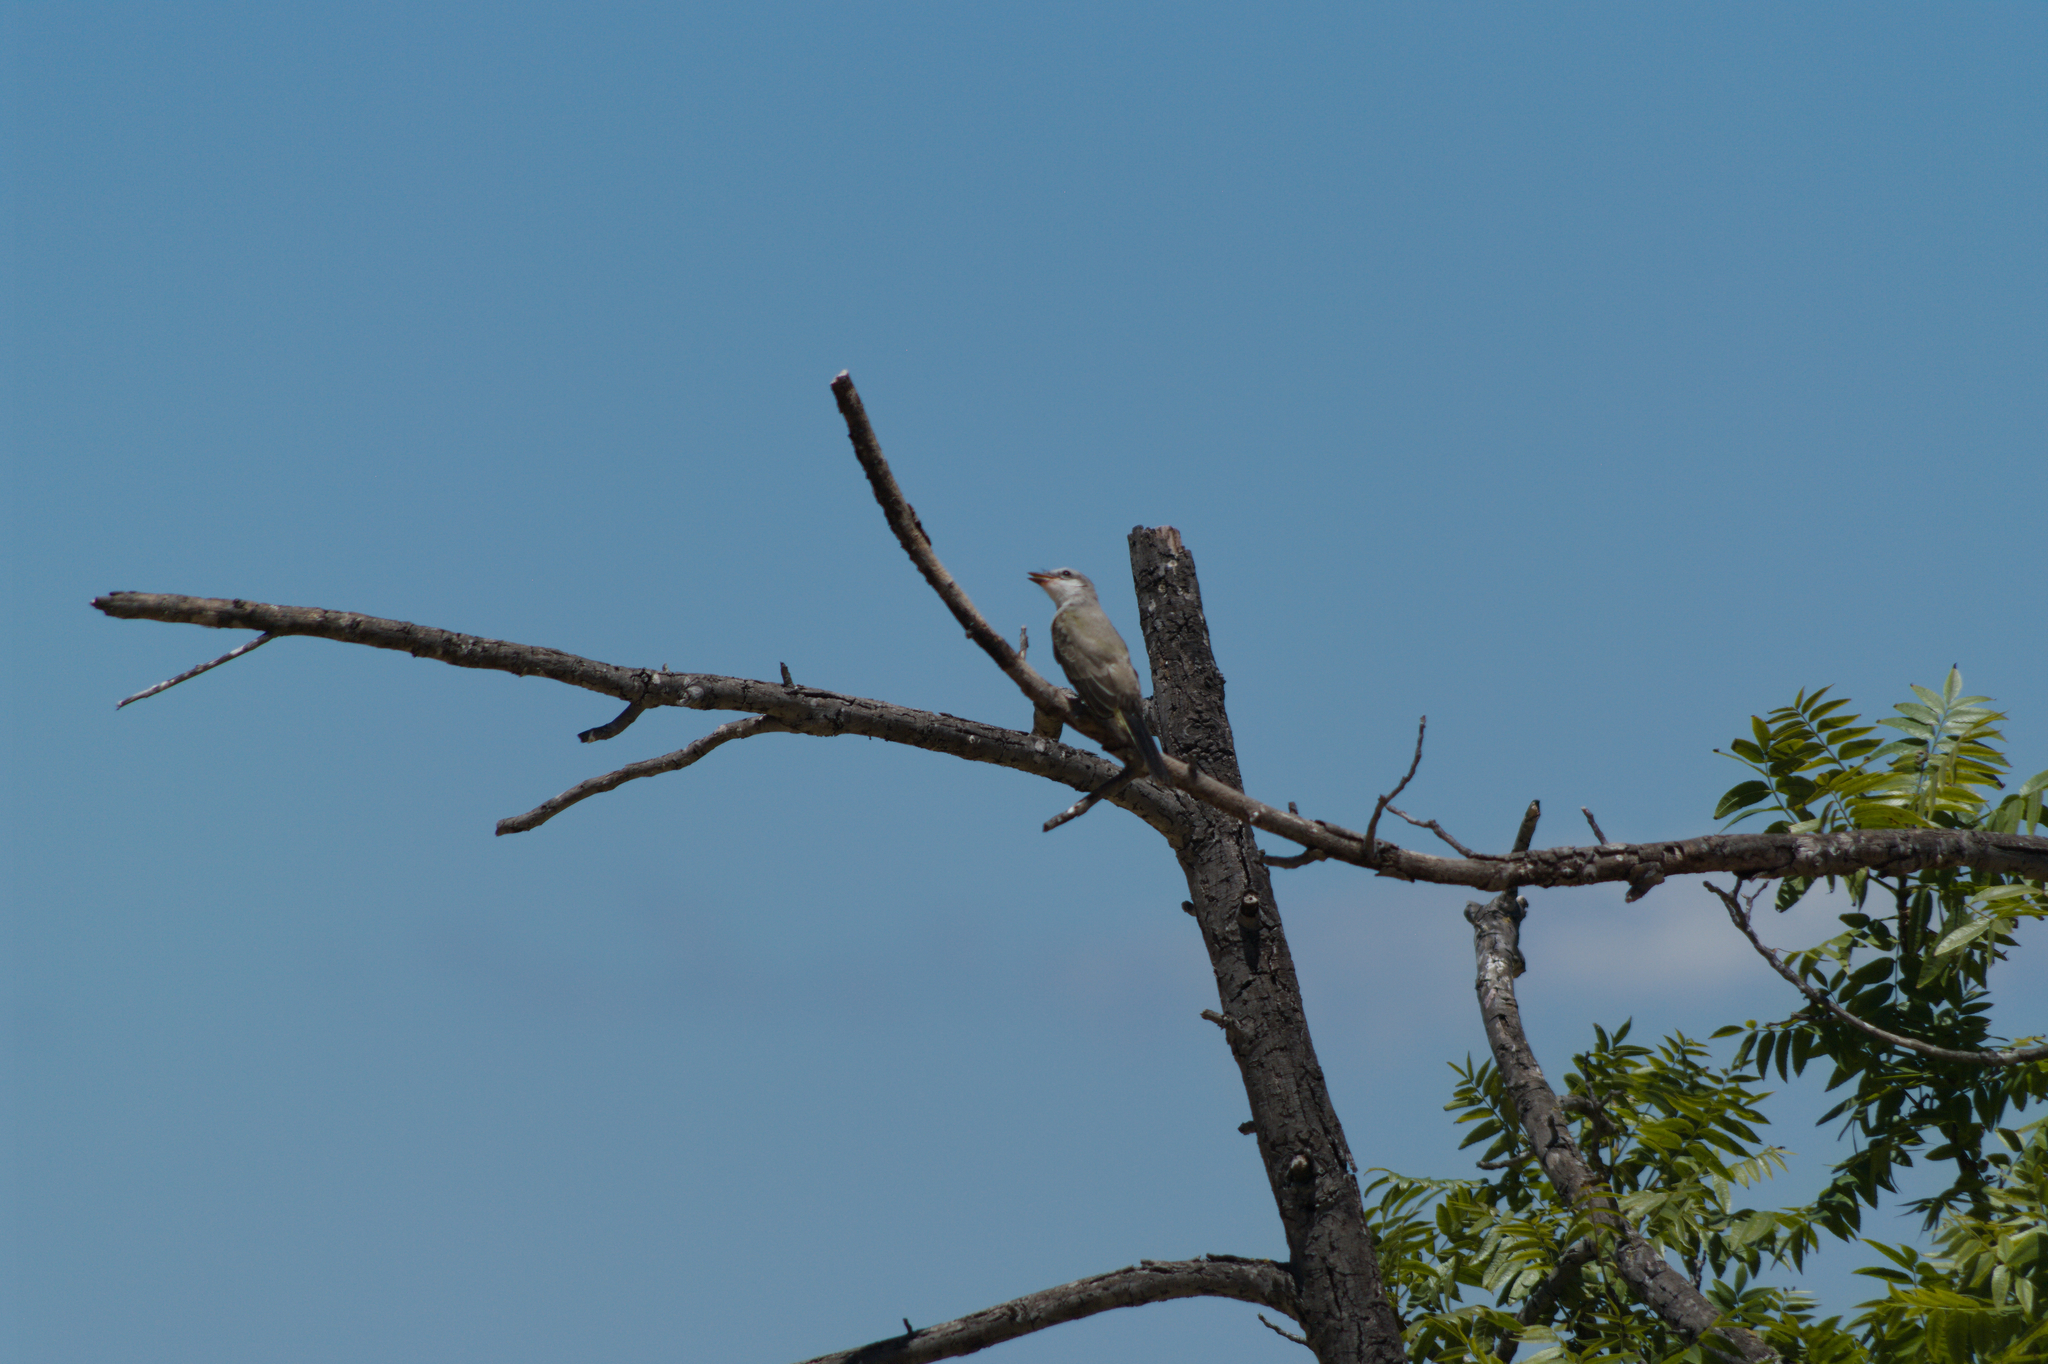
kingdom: Animalia
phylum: Chordata
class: Aves
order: Passeriformes
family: Tyrannidae
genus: Tyrannus
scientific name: Tyrannus verticalis
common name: Western kingbird
